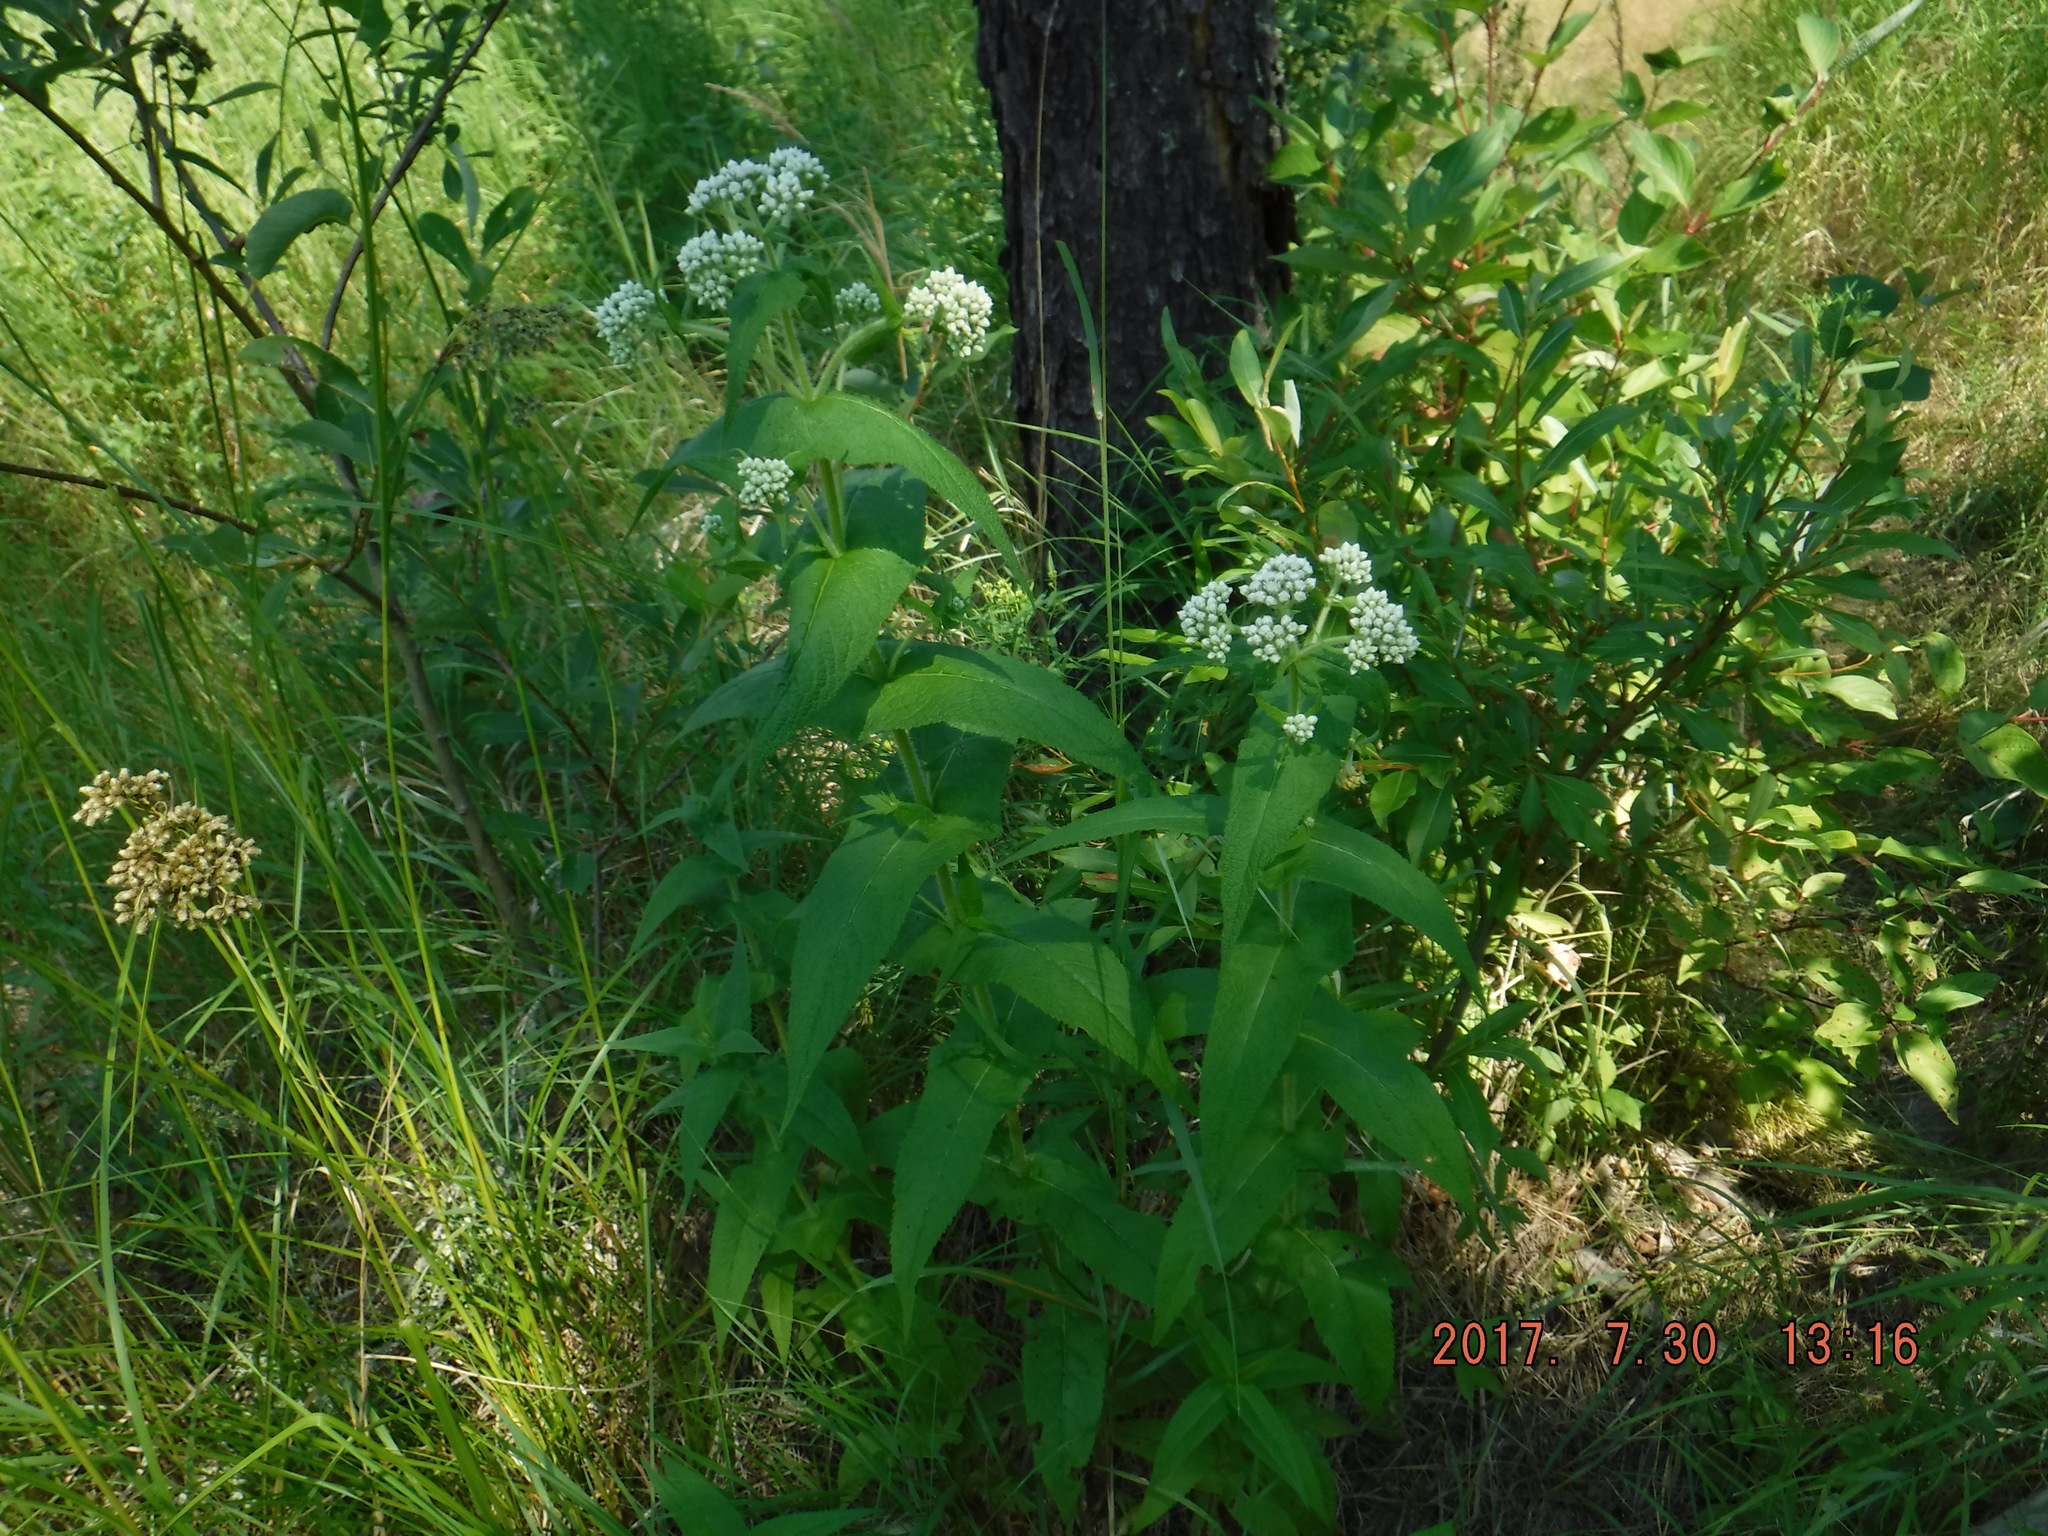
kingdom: Plantae
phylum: Tracheophyta
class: Magnoliopsida
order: Asterales
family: Asteraceae
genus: Eupatorium
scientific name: Eupatorium perfoliatum
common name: Boneset
